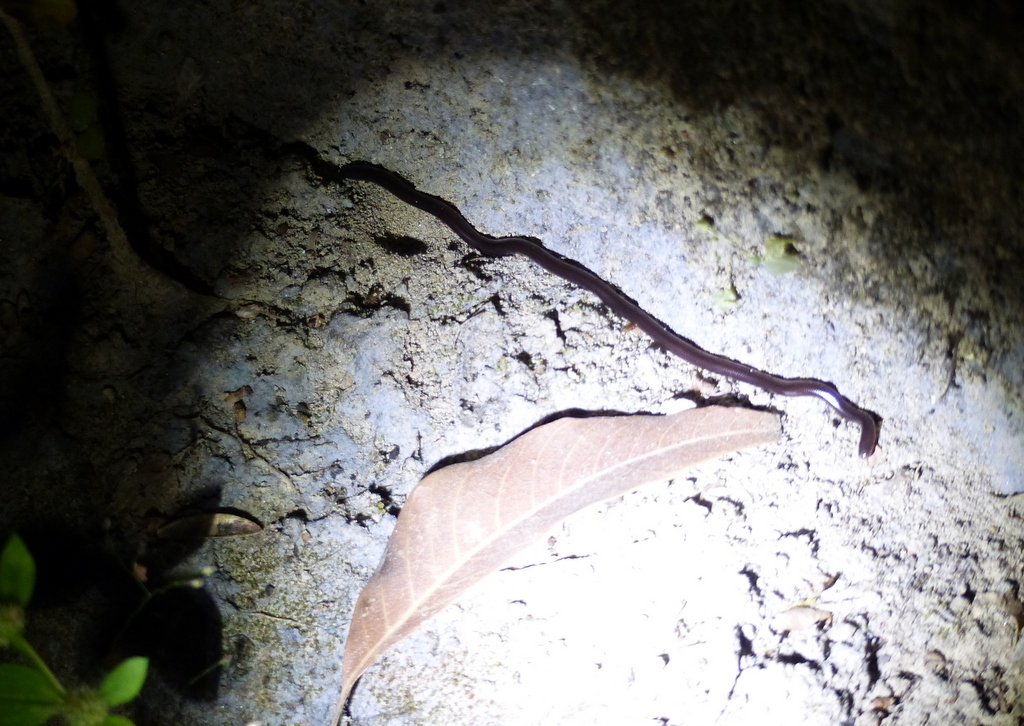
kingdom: Animalia
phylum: Chordata
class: Squamata
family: Typhlopidae
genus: Indotyphlops
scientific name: Indotyphlops braminus
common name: Brahminy blindsnake
